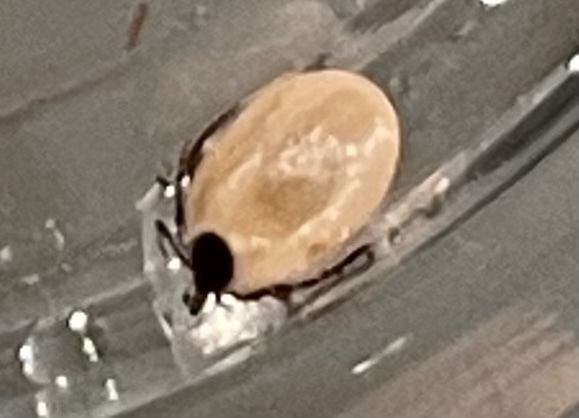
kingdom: Animalia
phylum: Arthropoda
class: Arachnida
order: Ixodida
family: Ixodidae
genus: Ixodes
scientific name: Ixodes scapularis
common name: Black legged tick
